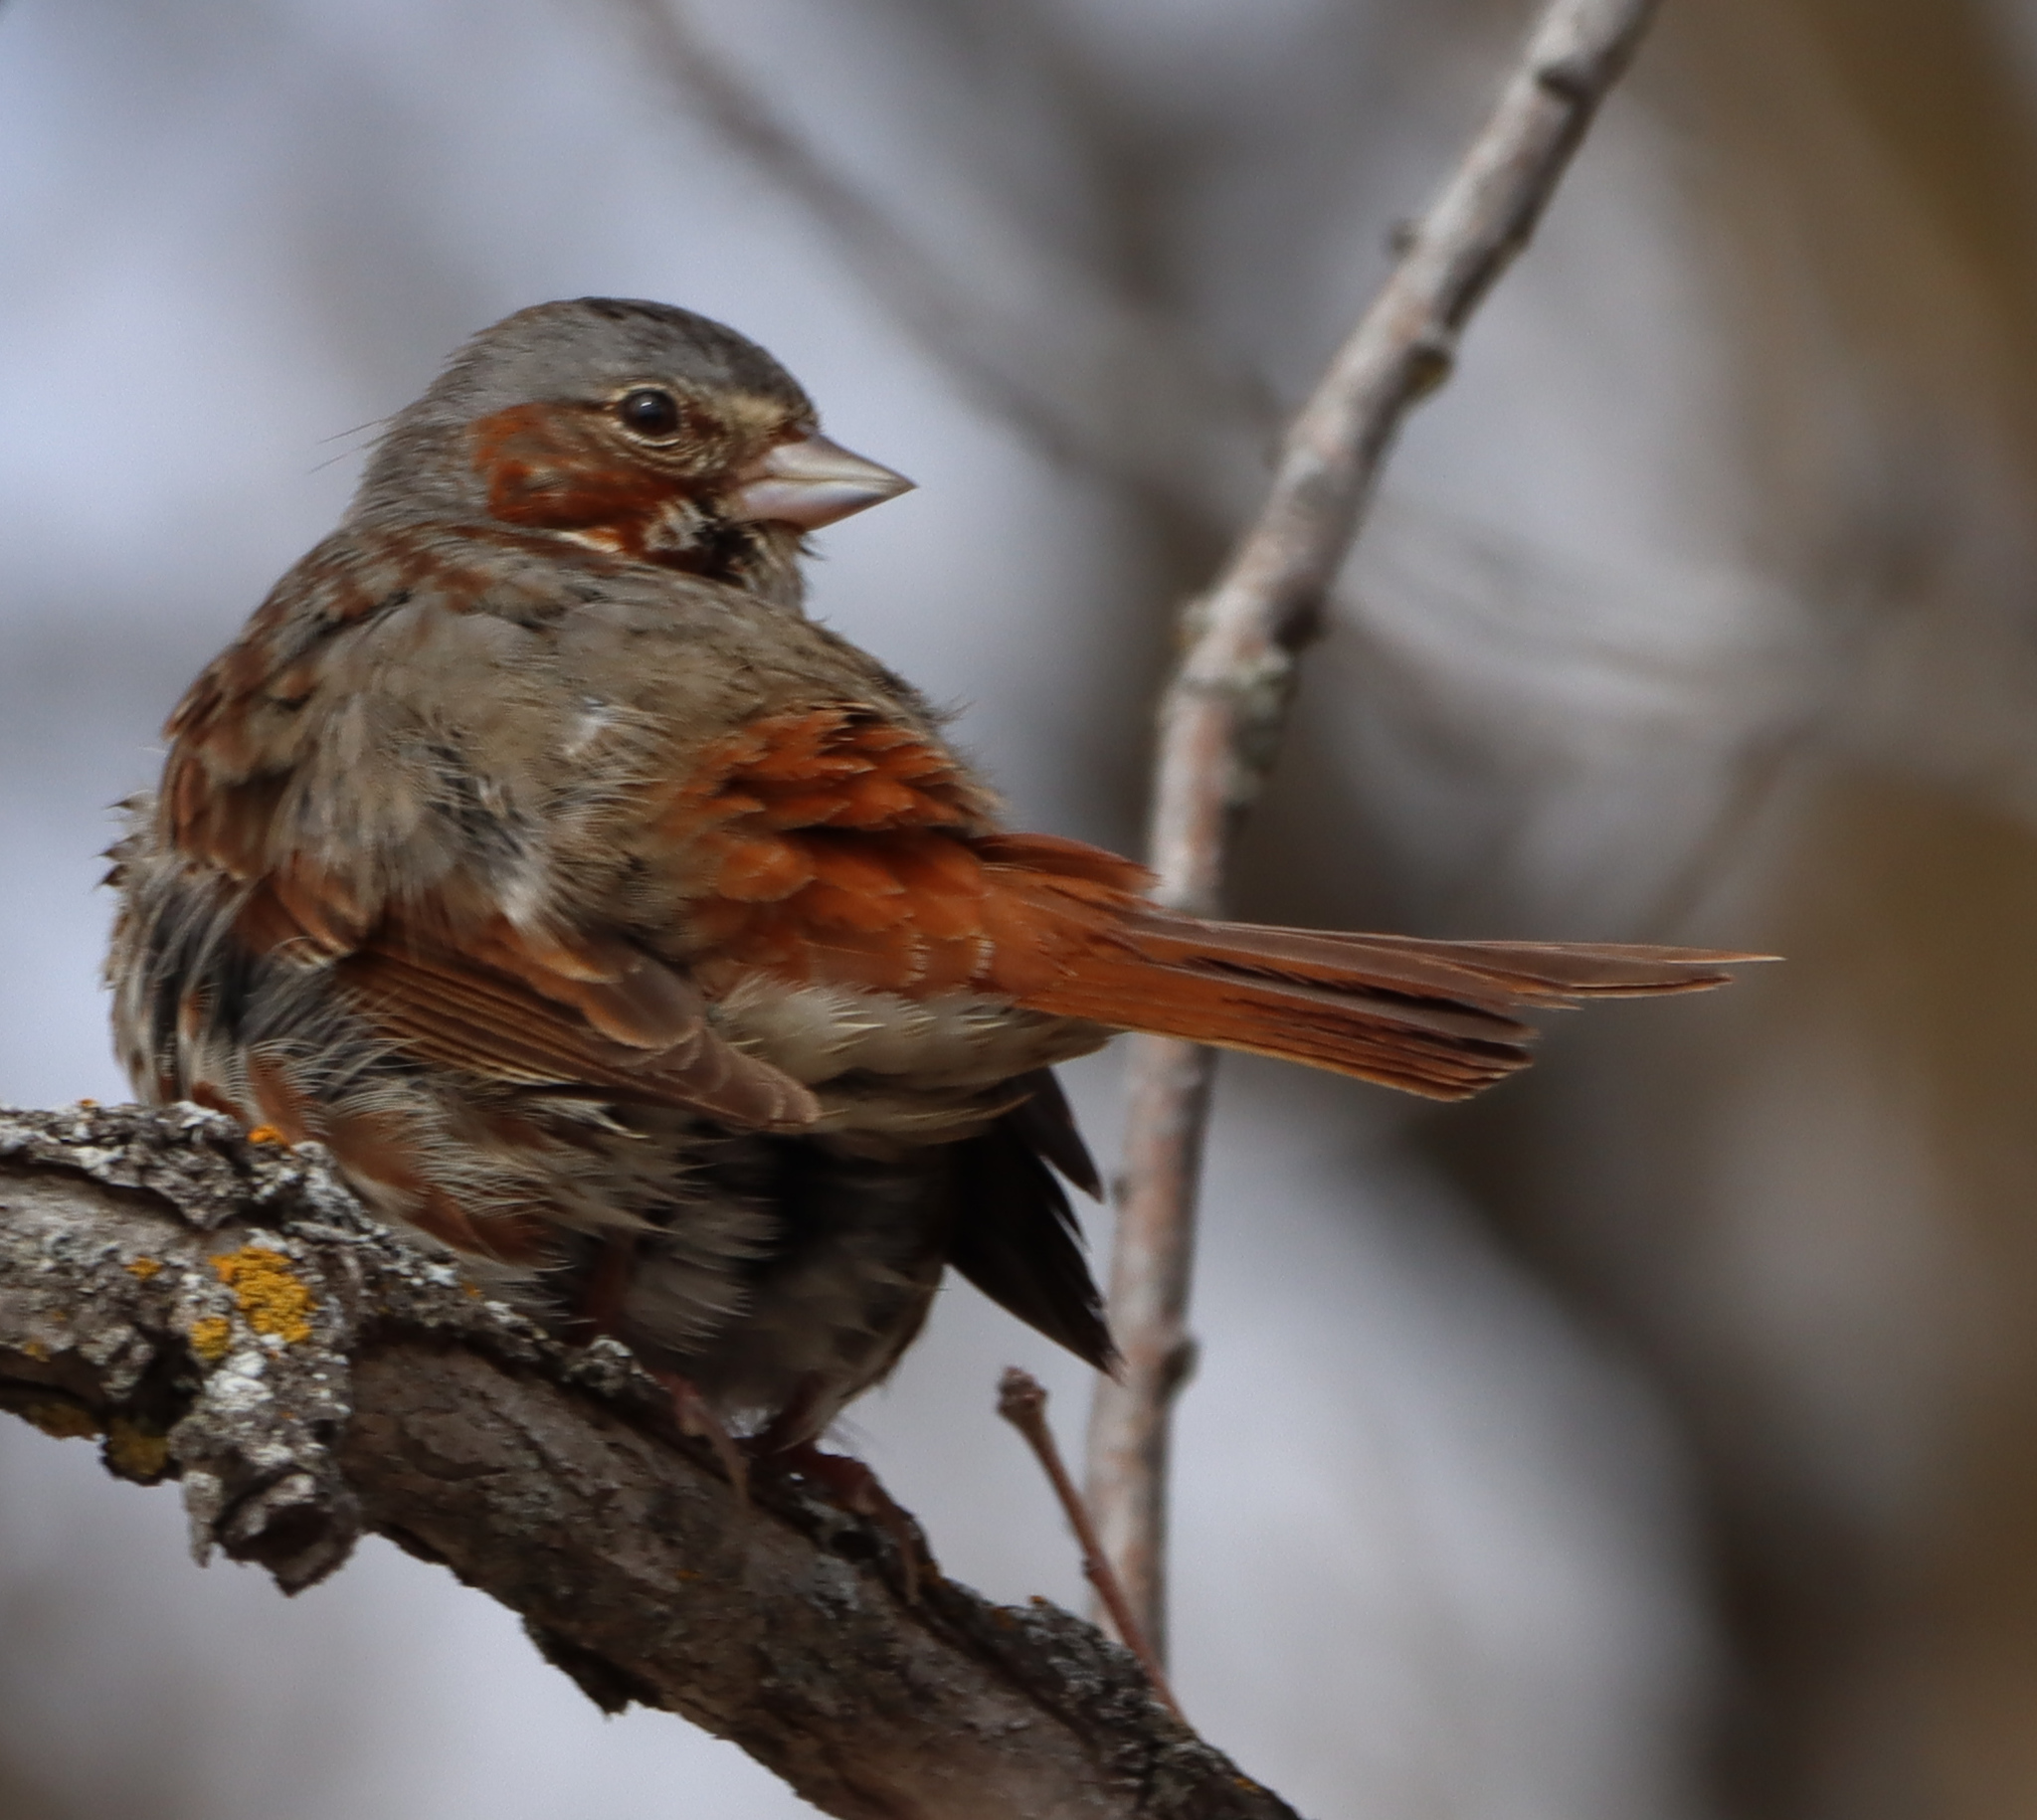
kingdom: Animalia
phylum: Chordata
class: Aves
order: Passeriformes
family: Passerellidae
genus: Passerella
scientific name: Passerella iliaca
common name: Fox sparrow
